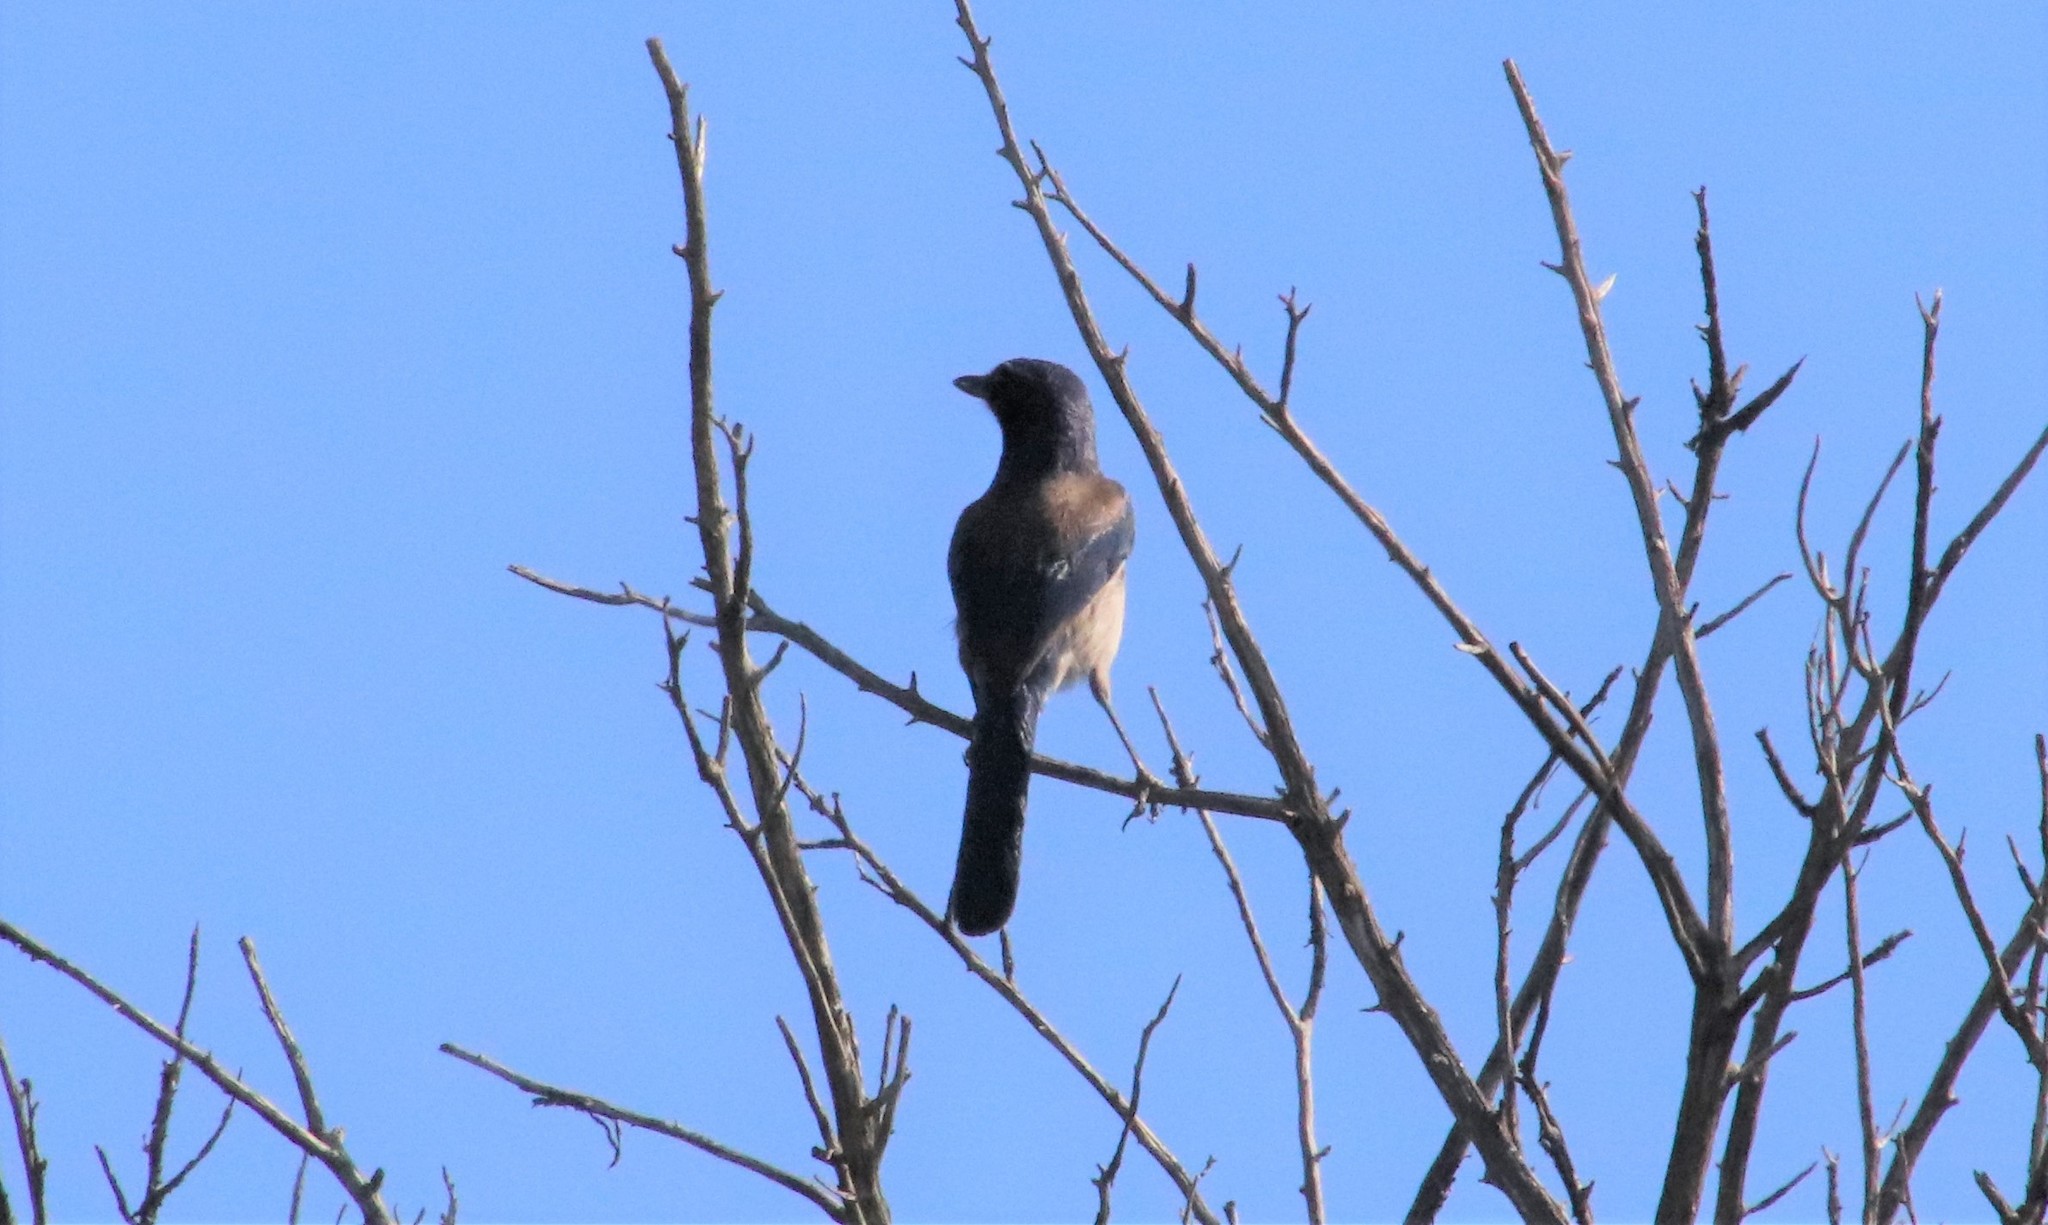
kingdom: Animalia
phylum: Chordata
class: Aves
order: Passeriformes
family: Corvidae
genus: Aphelocoma
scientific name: Aphelocoma californica
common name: California scrub-jay
